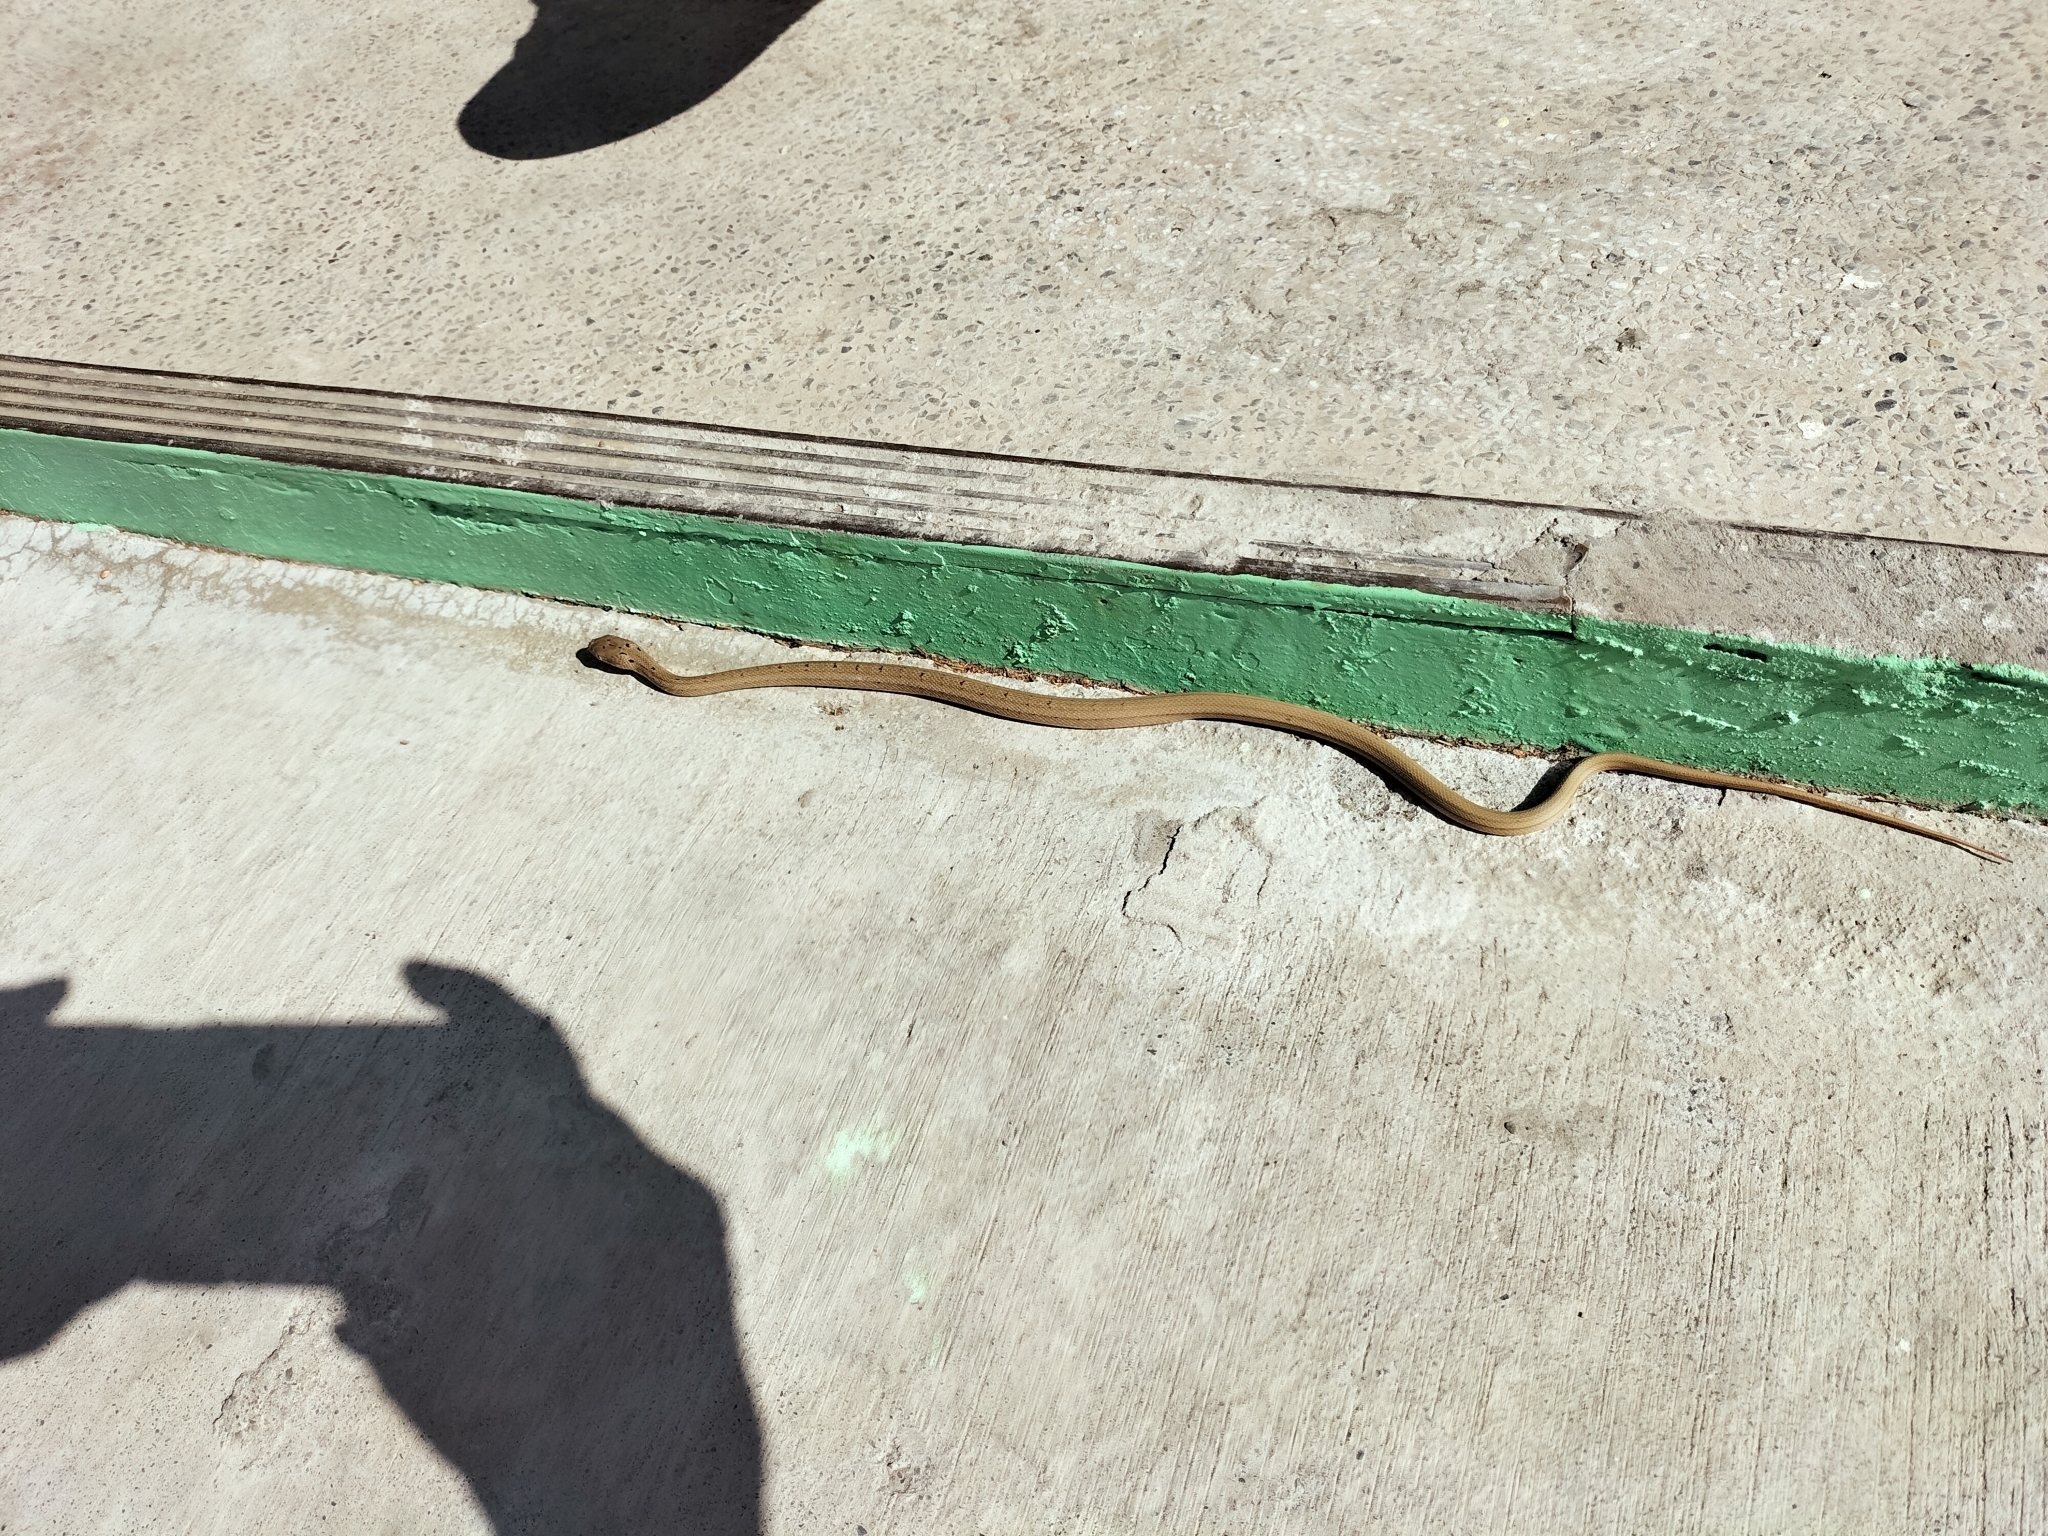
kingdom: Animalia
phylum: Chordata
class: Squamata
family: Colubridae
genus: Elaphe
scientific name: Elaphe carinata
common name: Taiwan stink snake
